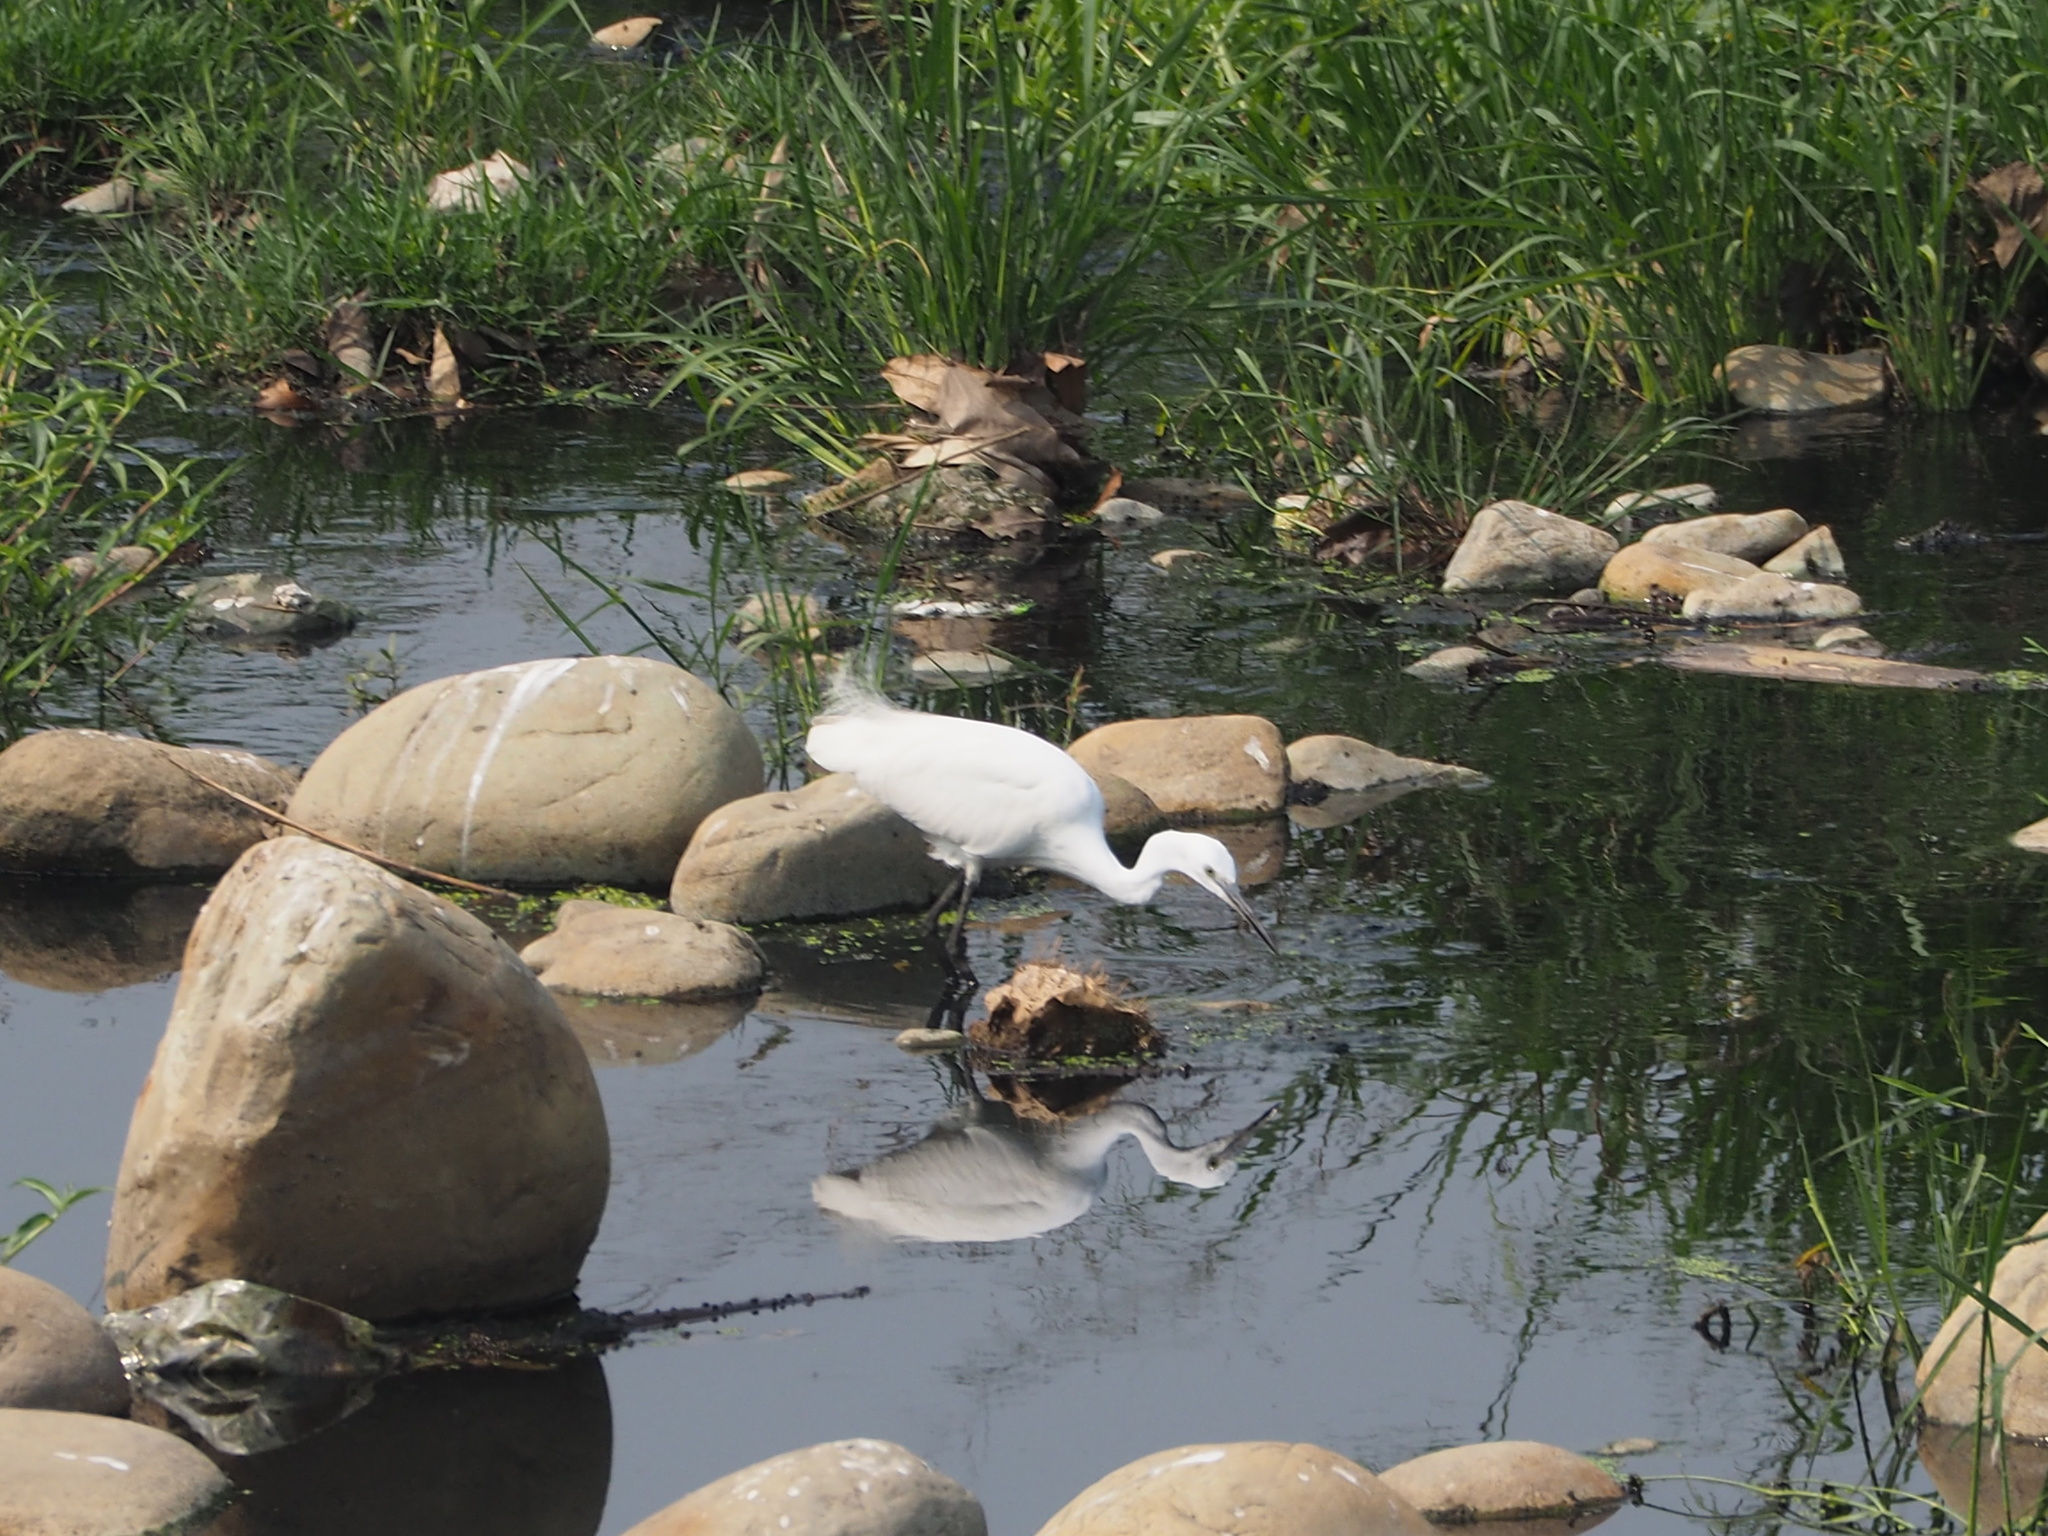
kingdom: Animalia
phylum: Chordata
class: Aves
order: Pelecaniformes
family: Ardeidae
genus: Egretta
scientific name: Egretta garzetta
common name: Little egret
